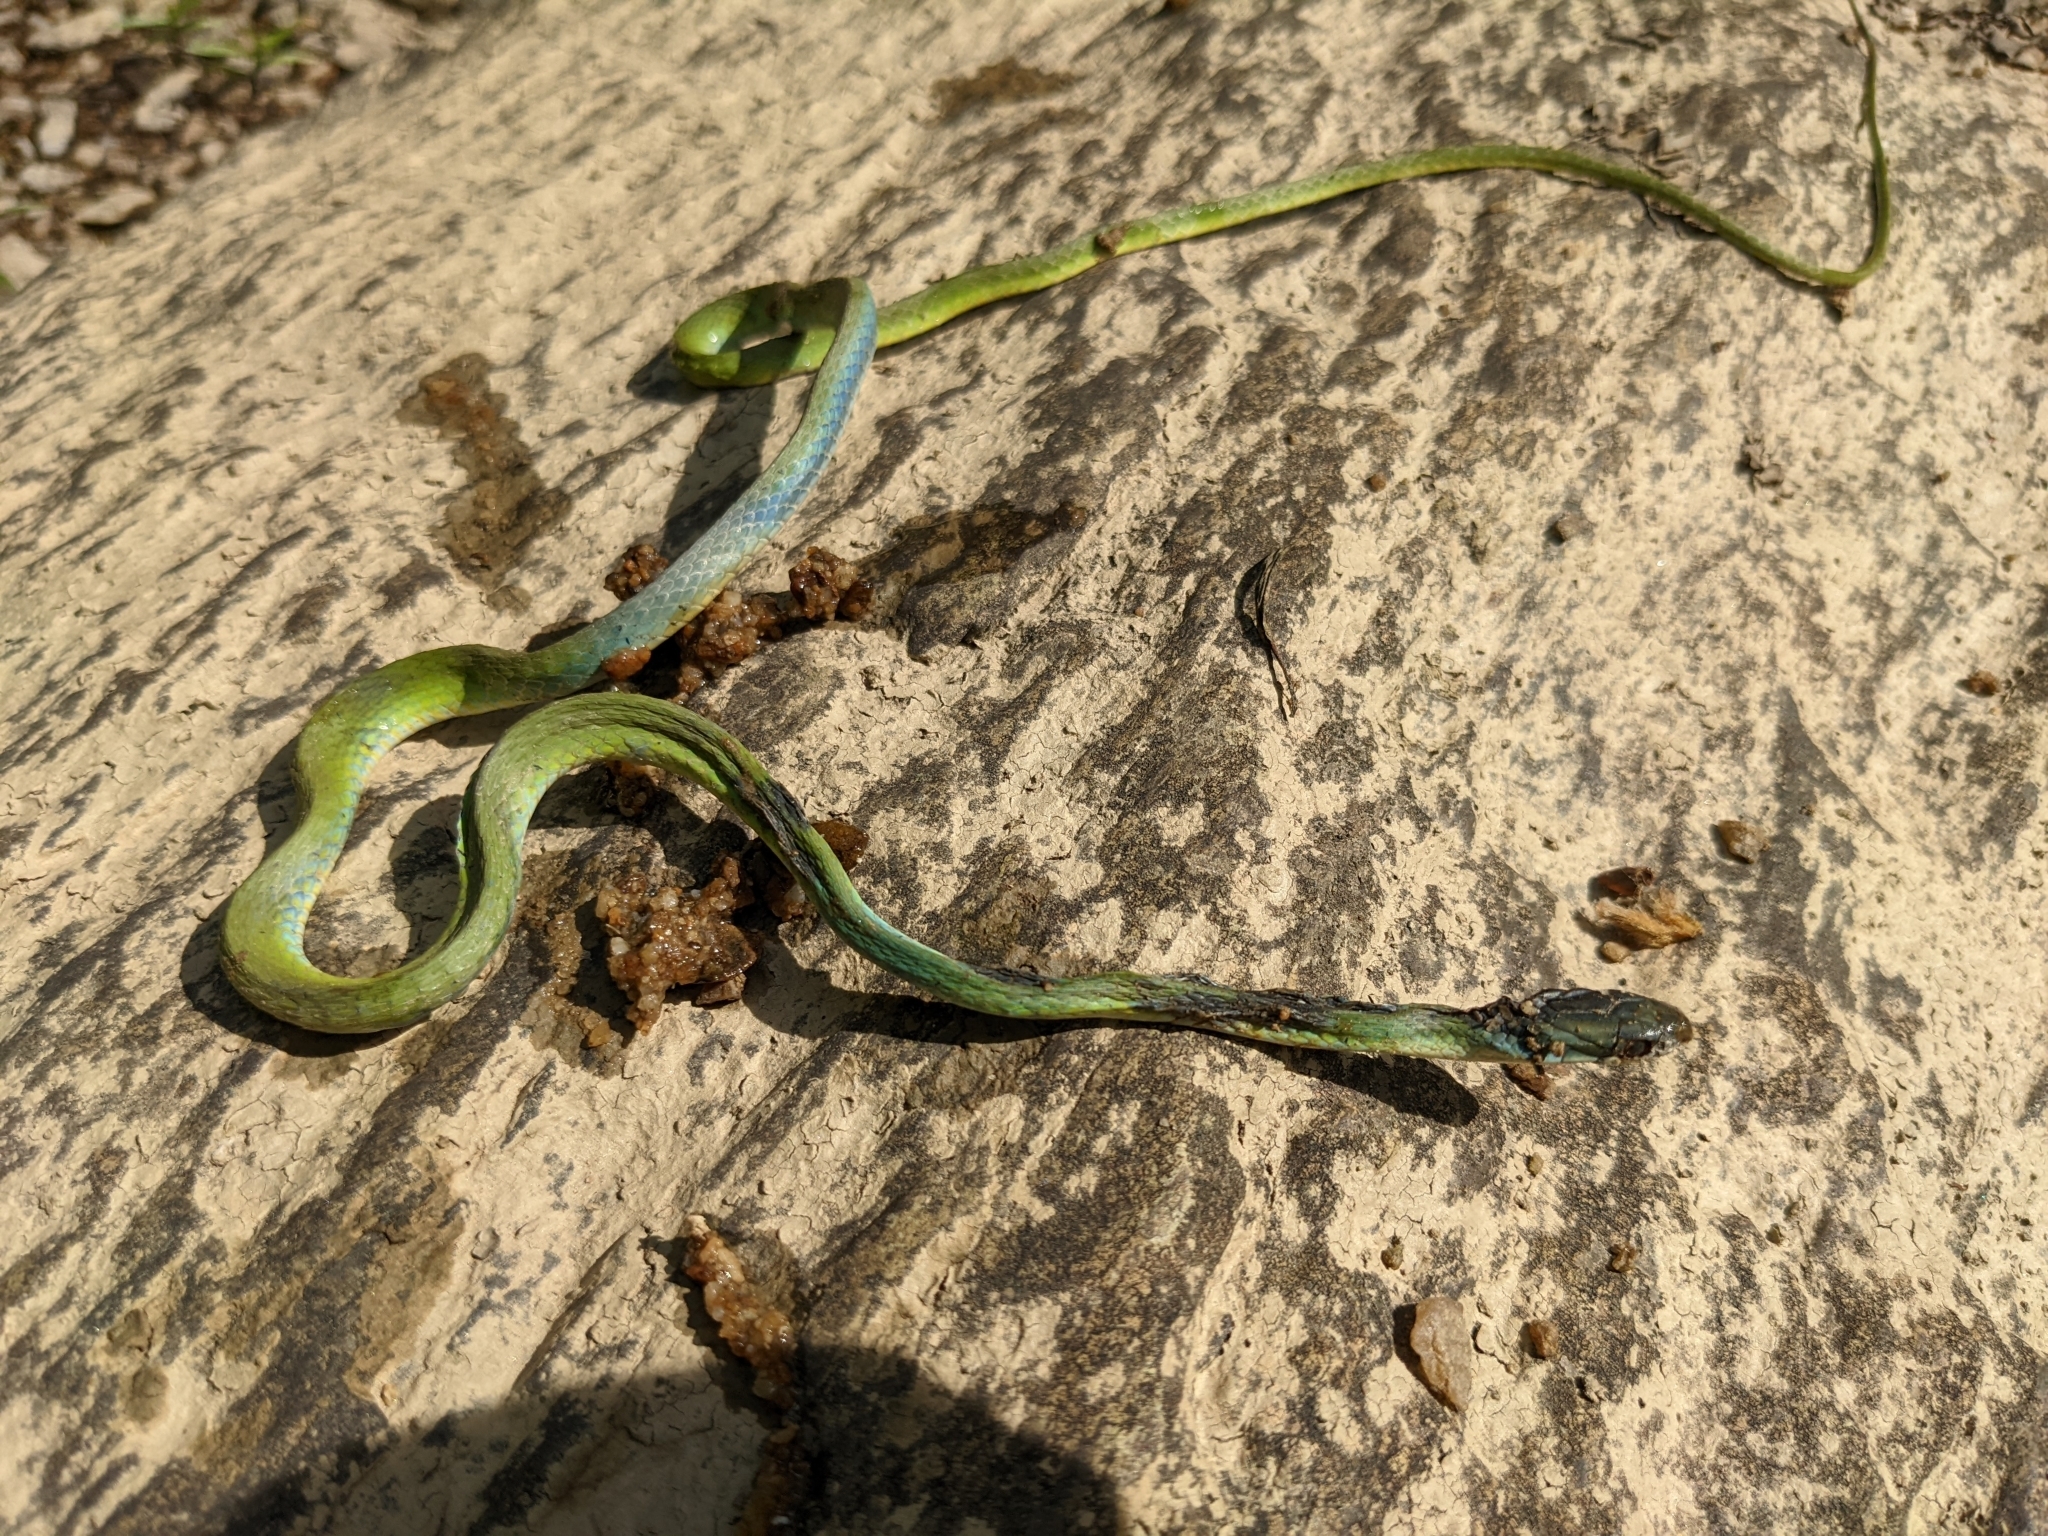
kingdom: Animalia
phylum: Chordata
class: Squamata
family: Colubridae
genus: Opheodrys
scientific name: Opheodrys aestivus
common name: Rough greensnake
